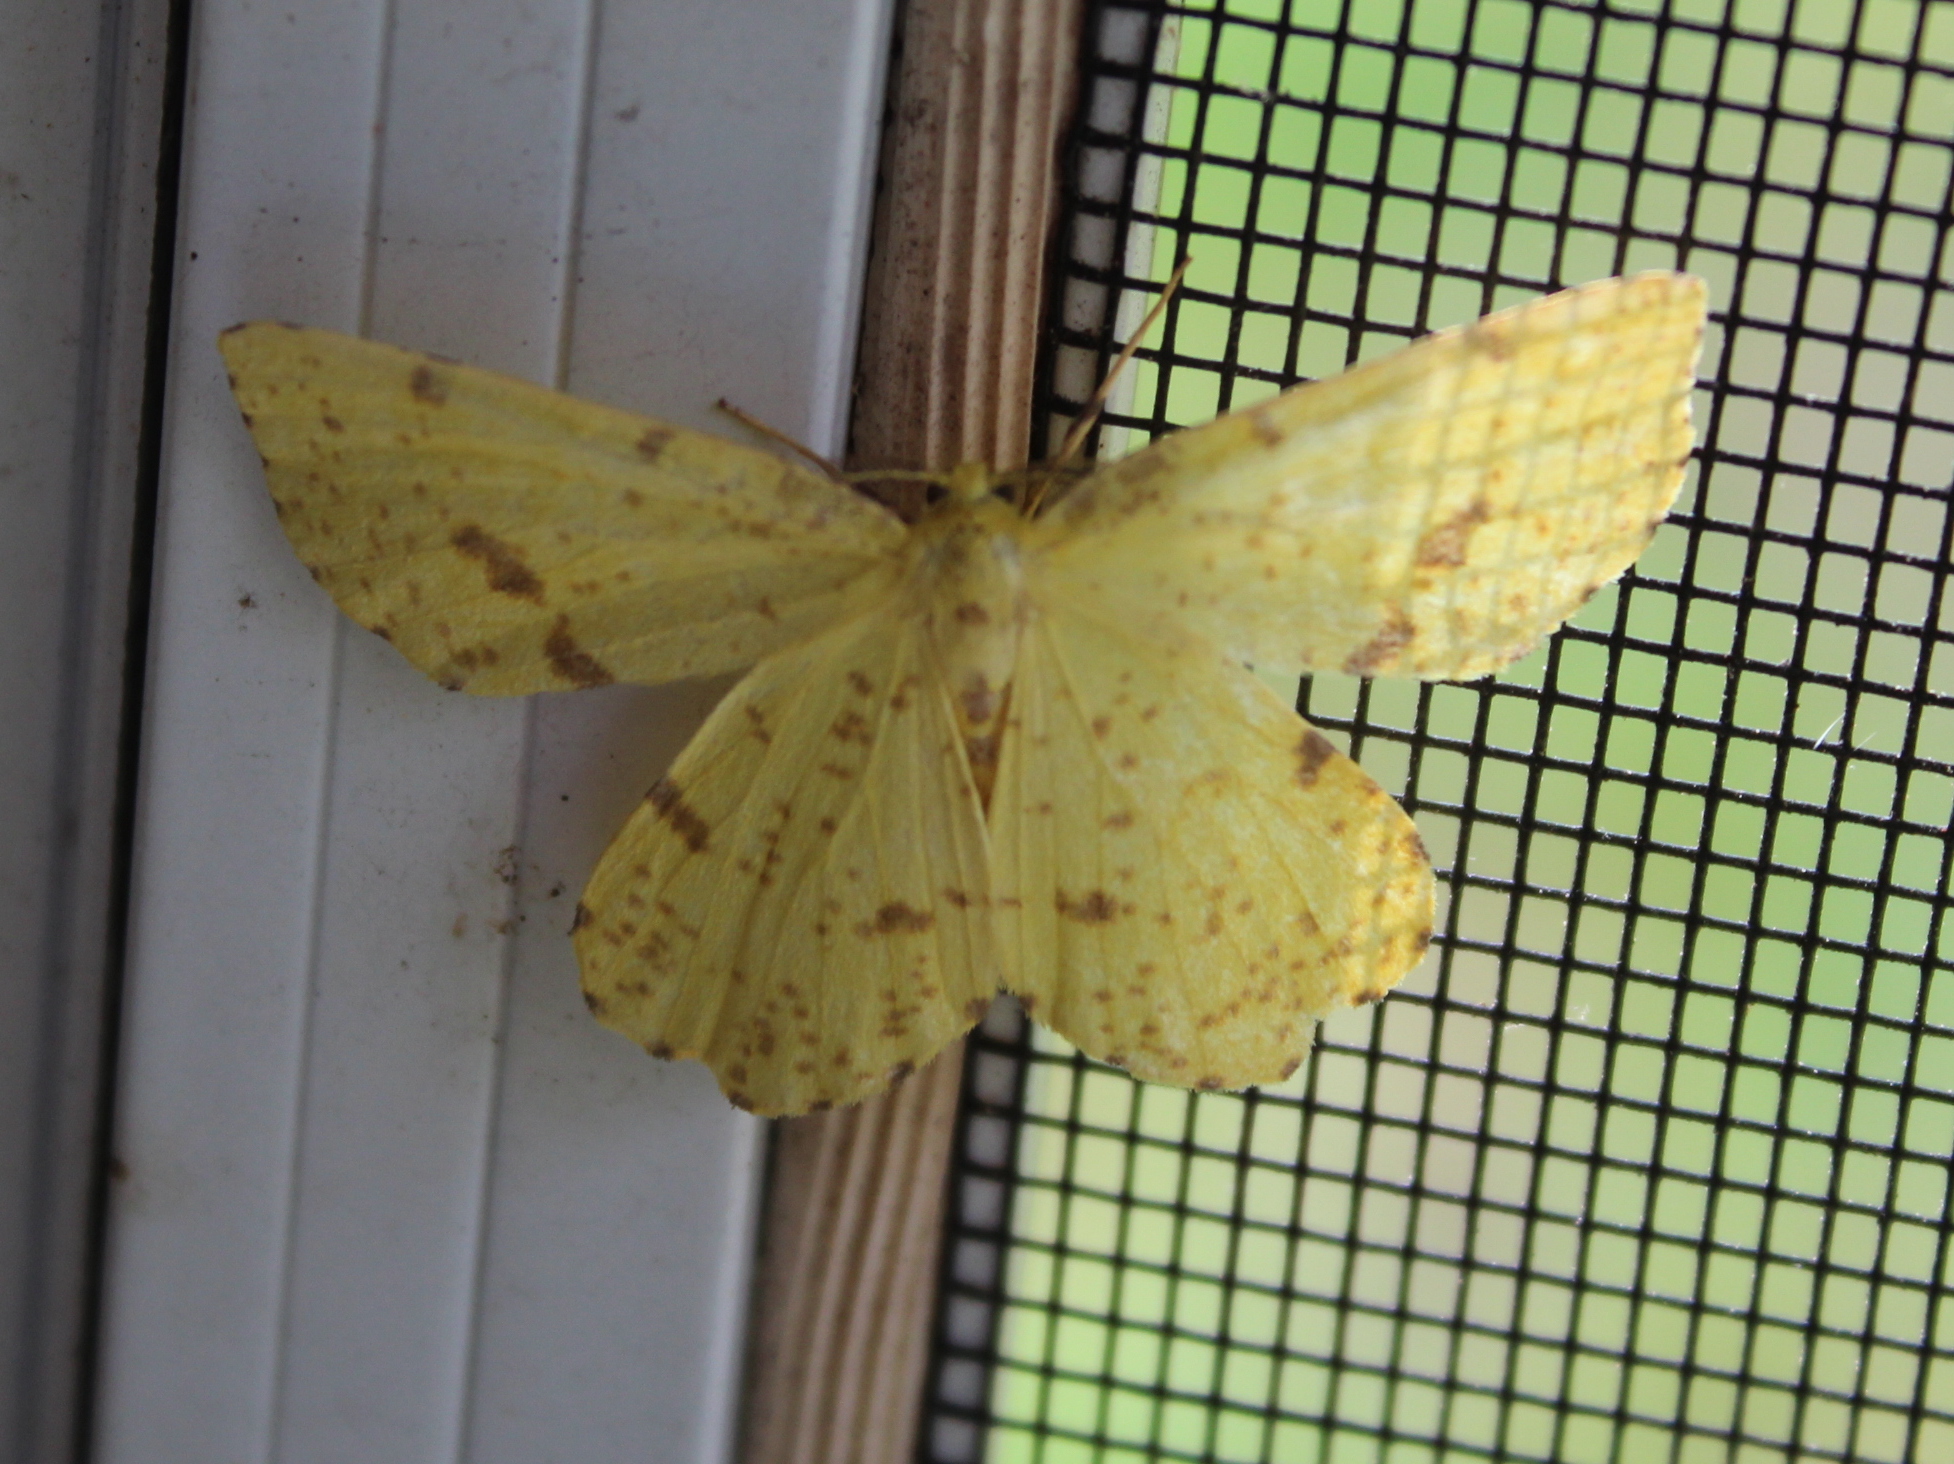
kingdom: Animalia
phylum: Arthropoda
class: Insecta
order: Lepidoptera
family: Geometridae
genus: Xanthotype
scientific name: Xanthotype
